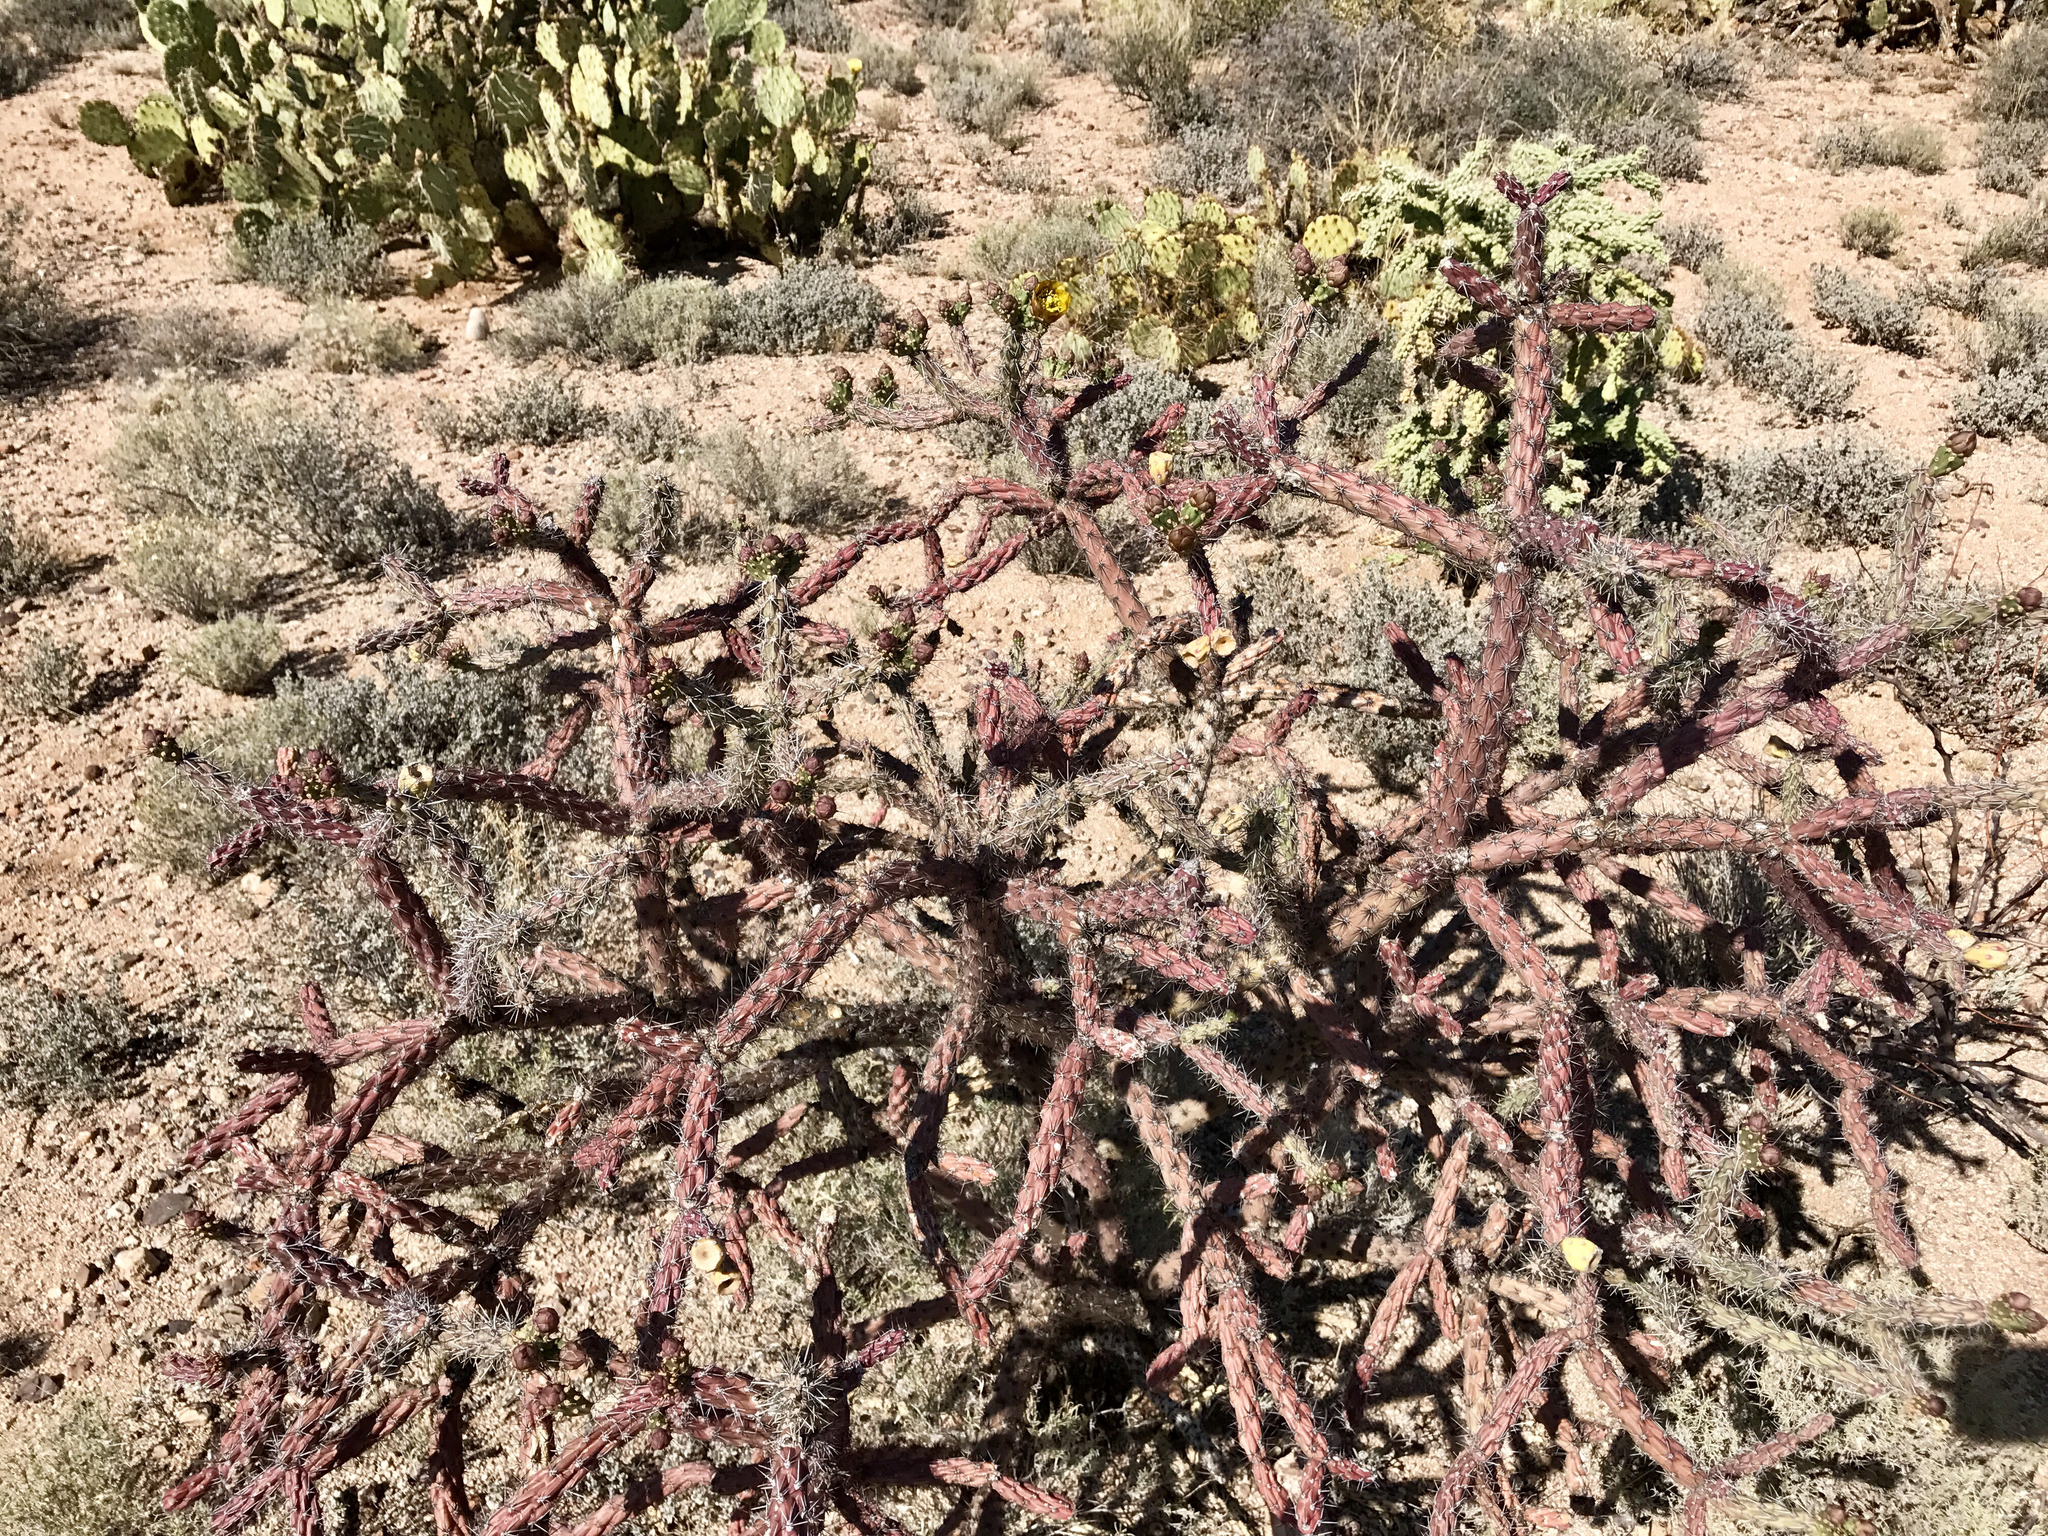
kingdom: Plantae
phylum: Tracheophyta
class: Magnoliopsida
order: Caryophyllales
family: Cactaceae
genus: Cylindropuntia
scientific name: Cylindropuntia thurberi
